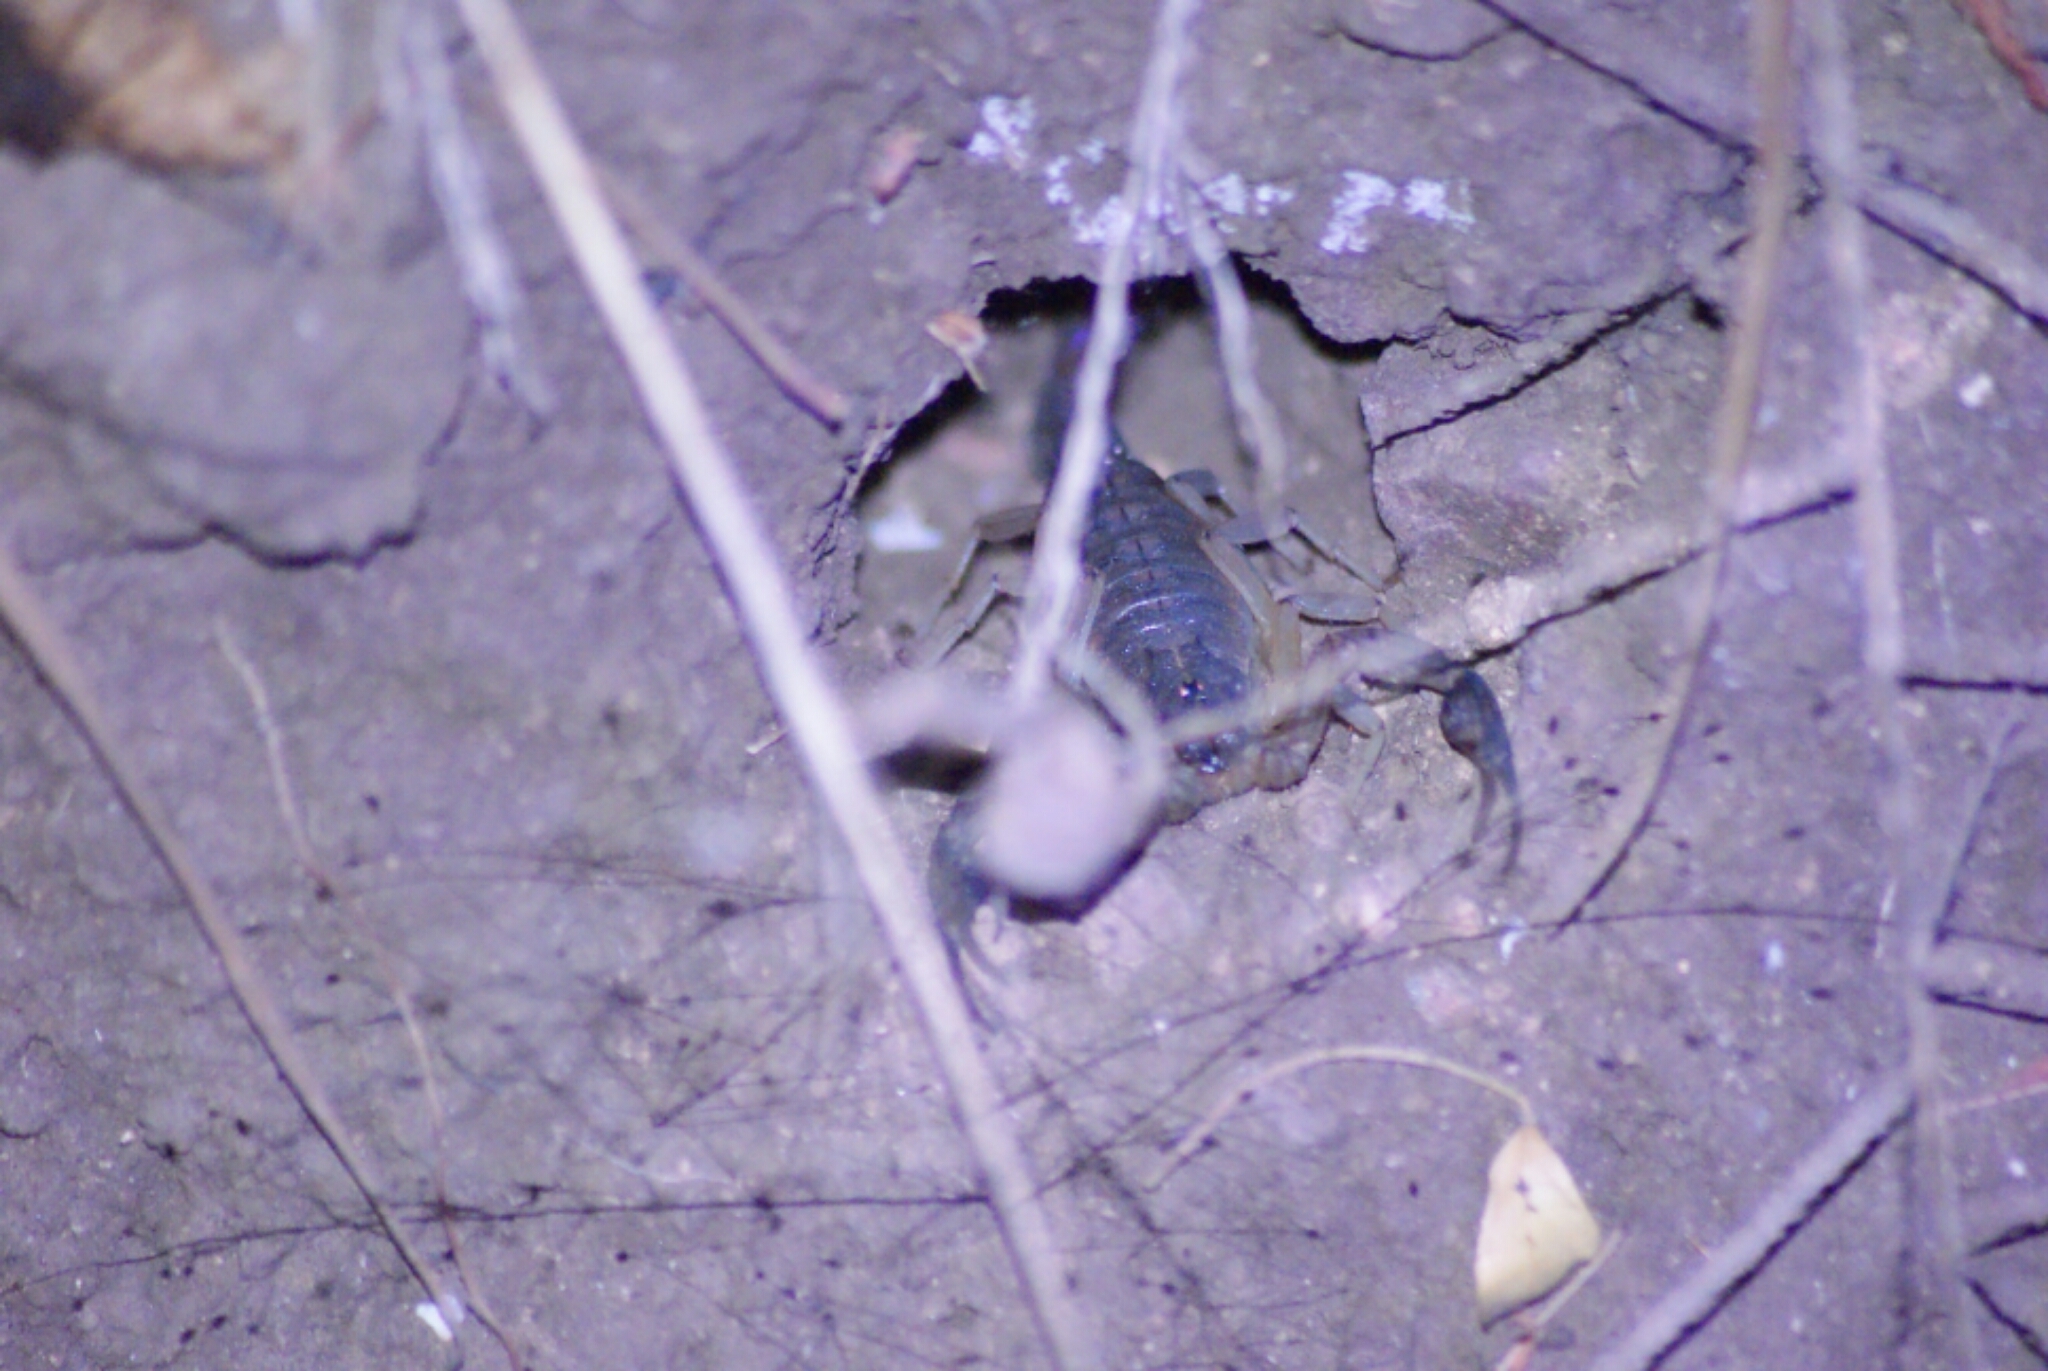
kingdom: Animalia
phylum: Arthropoda
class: Arachnida
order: Scorpiones
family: Buthidae
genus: Centruroides
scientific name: Centruroides fallassisimus
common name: Scorpiones
